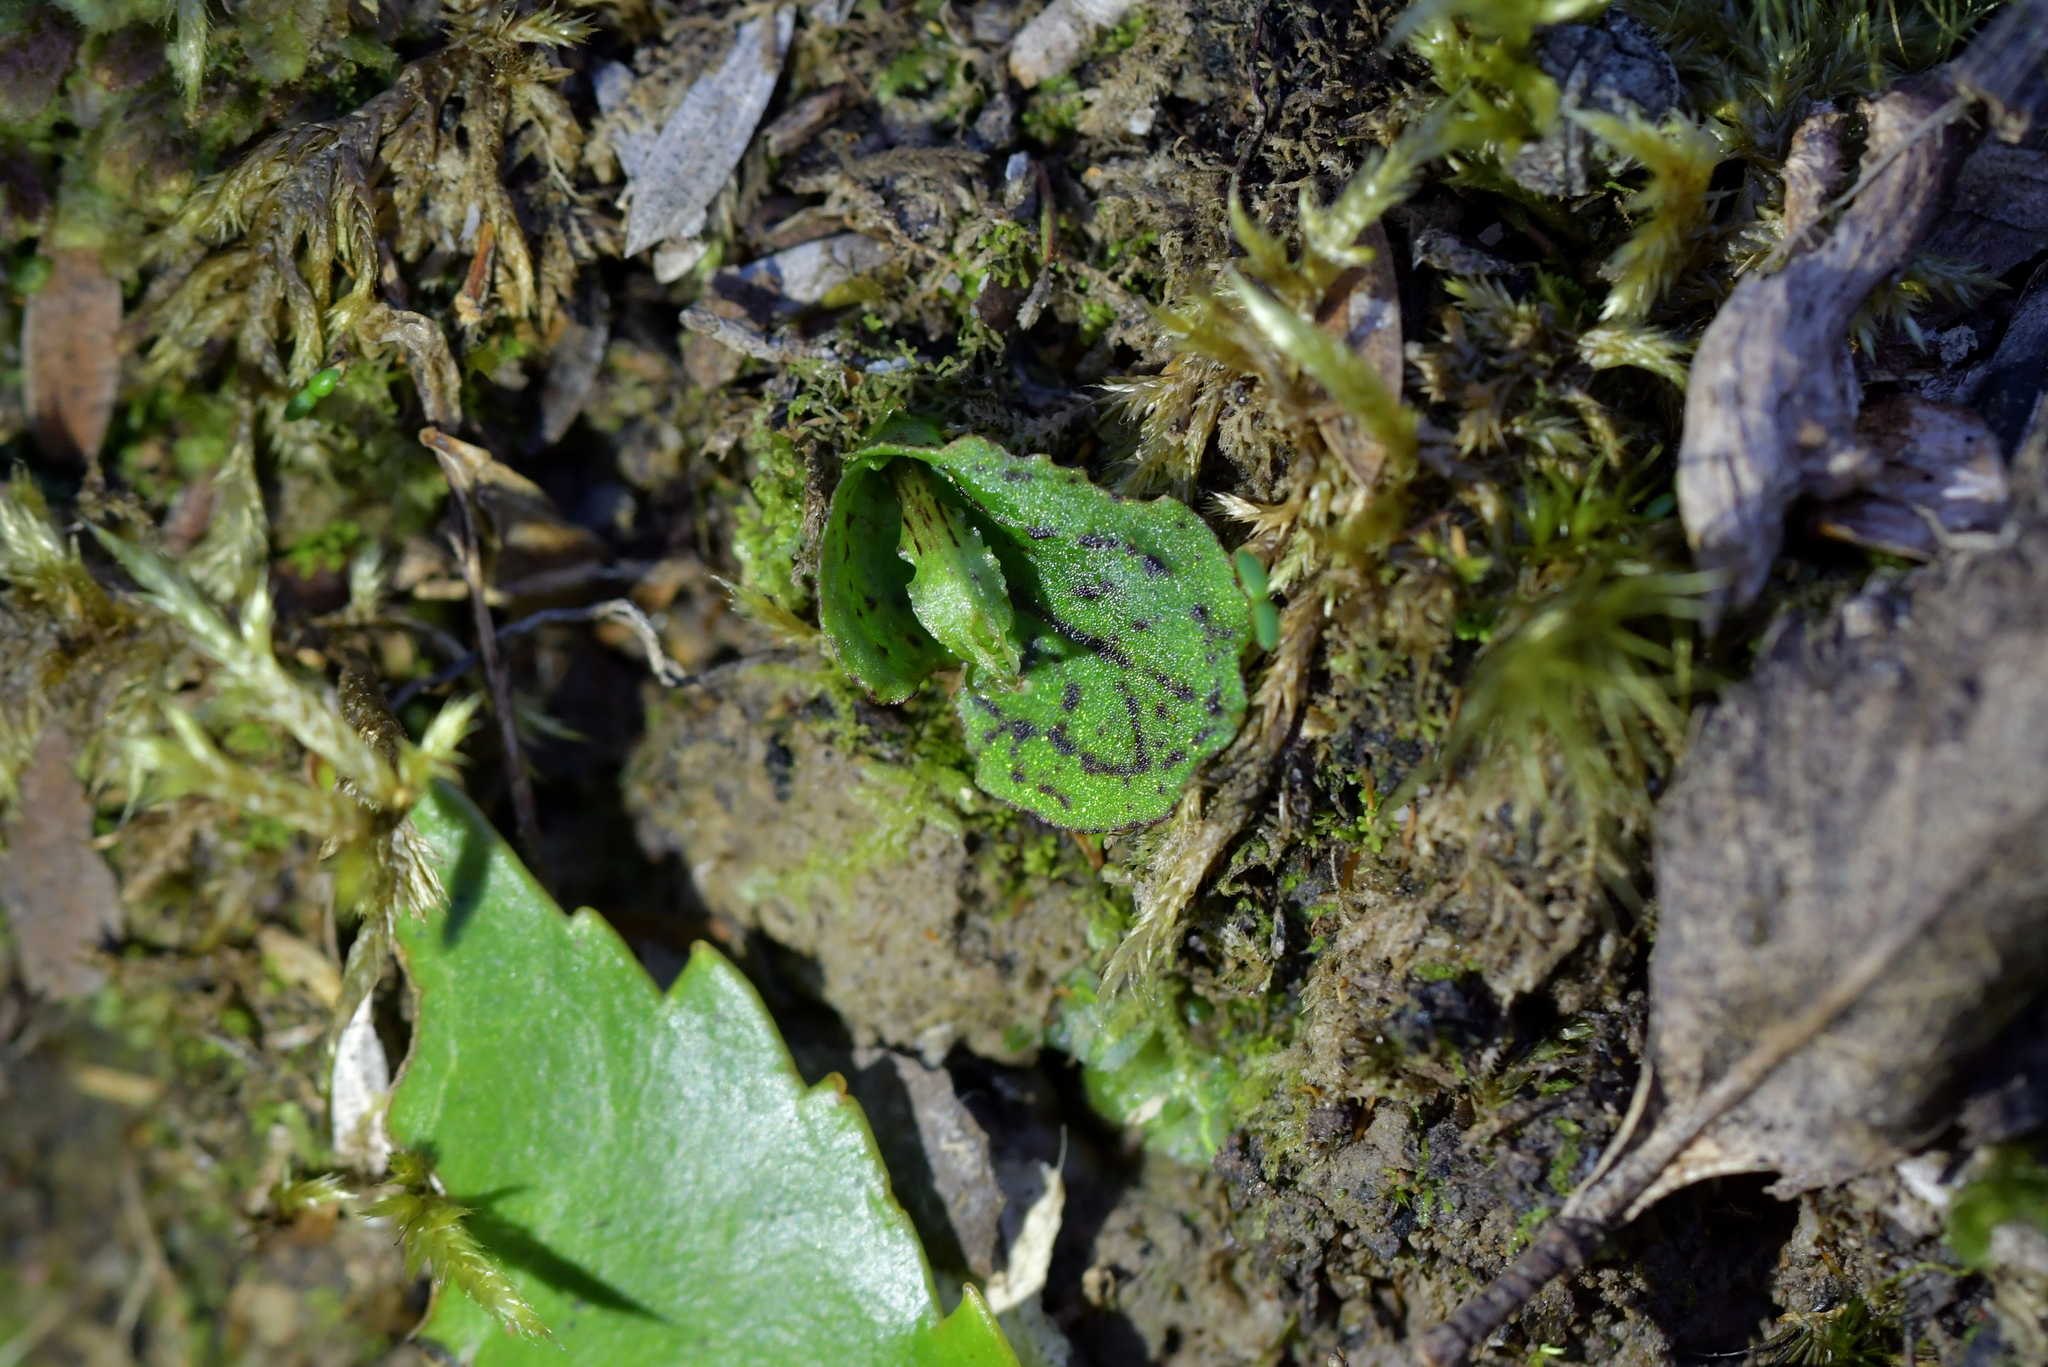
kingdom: Plantae
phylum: Tracheophyta
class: Liliopsida
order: Asparagales
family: Orchidaceae
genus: Corybas
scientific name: Corybas oblongus
